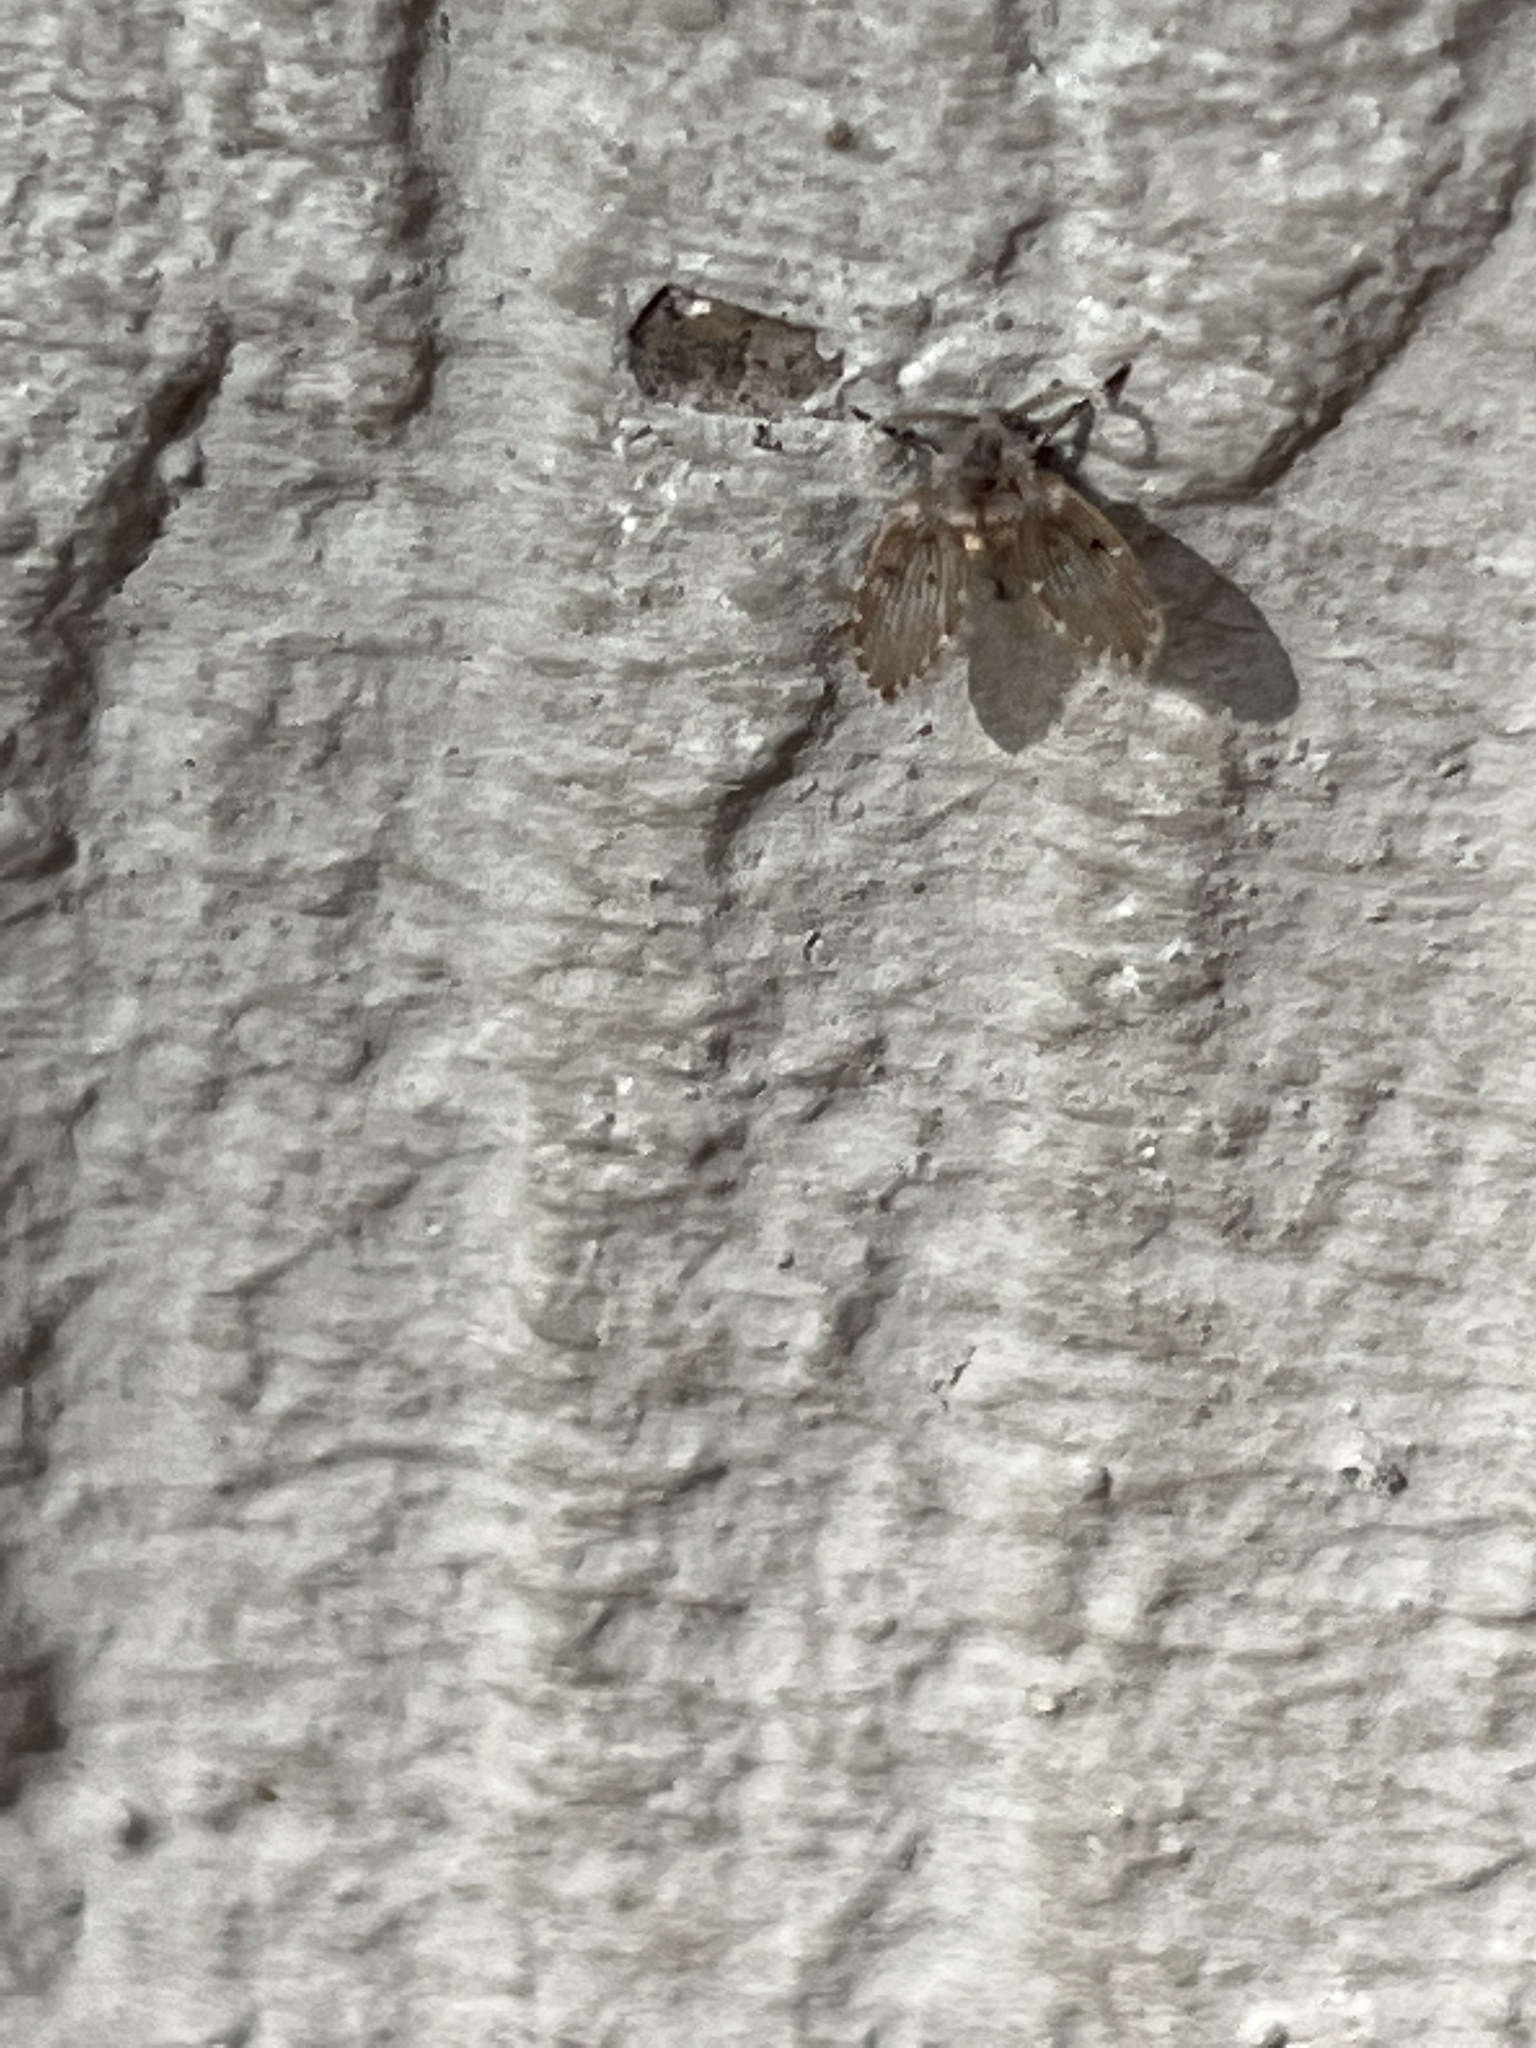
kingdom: Animalia
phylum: Arthropoda
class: Insecta
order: Diptera
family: Psychodidae
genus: Clogmia
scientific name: Clogmia albipunctatus
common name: White-spotted moth fly
